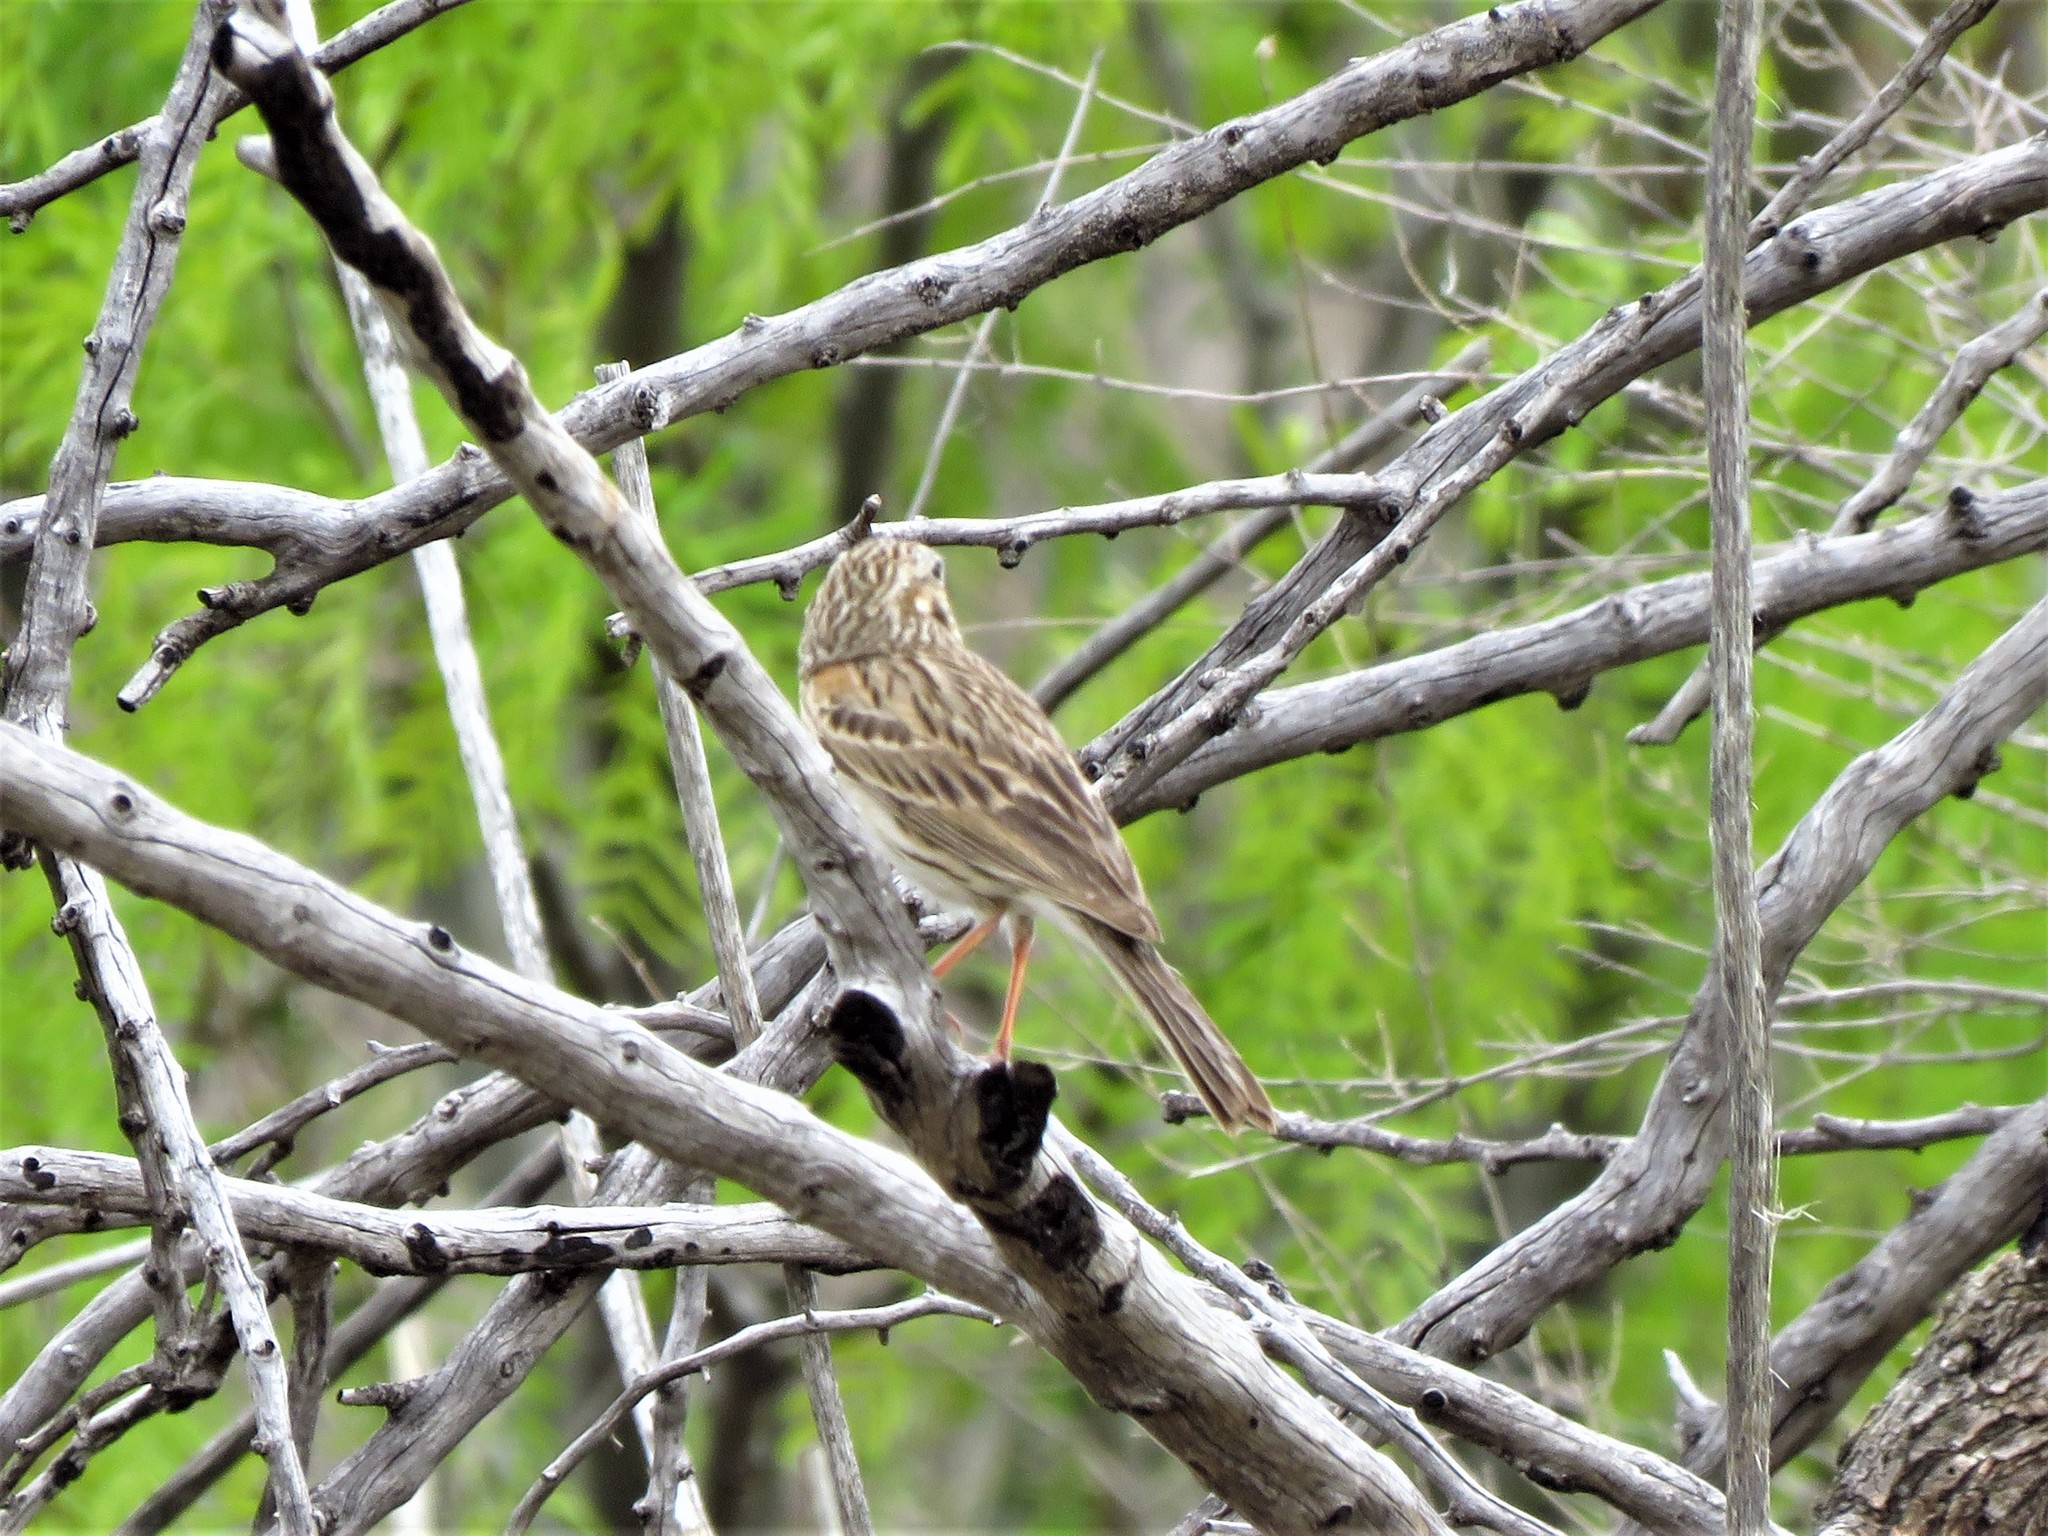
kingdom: Animalia
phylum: Chordata
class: Aves
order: Passeriformes
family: Passerellidae
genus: Pooecetes
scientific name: Pooecetes gramineus
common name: Vesper sparrow
